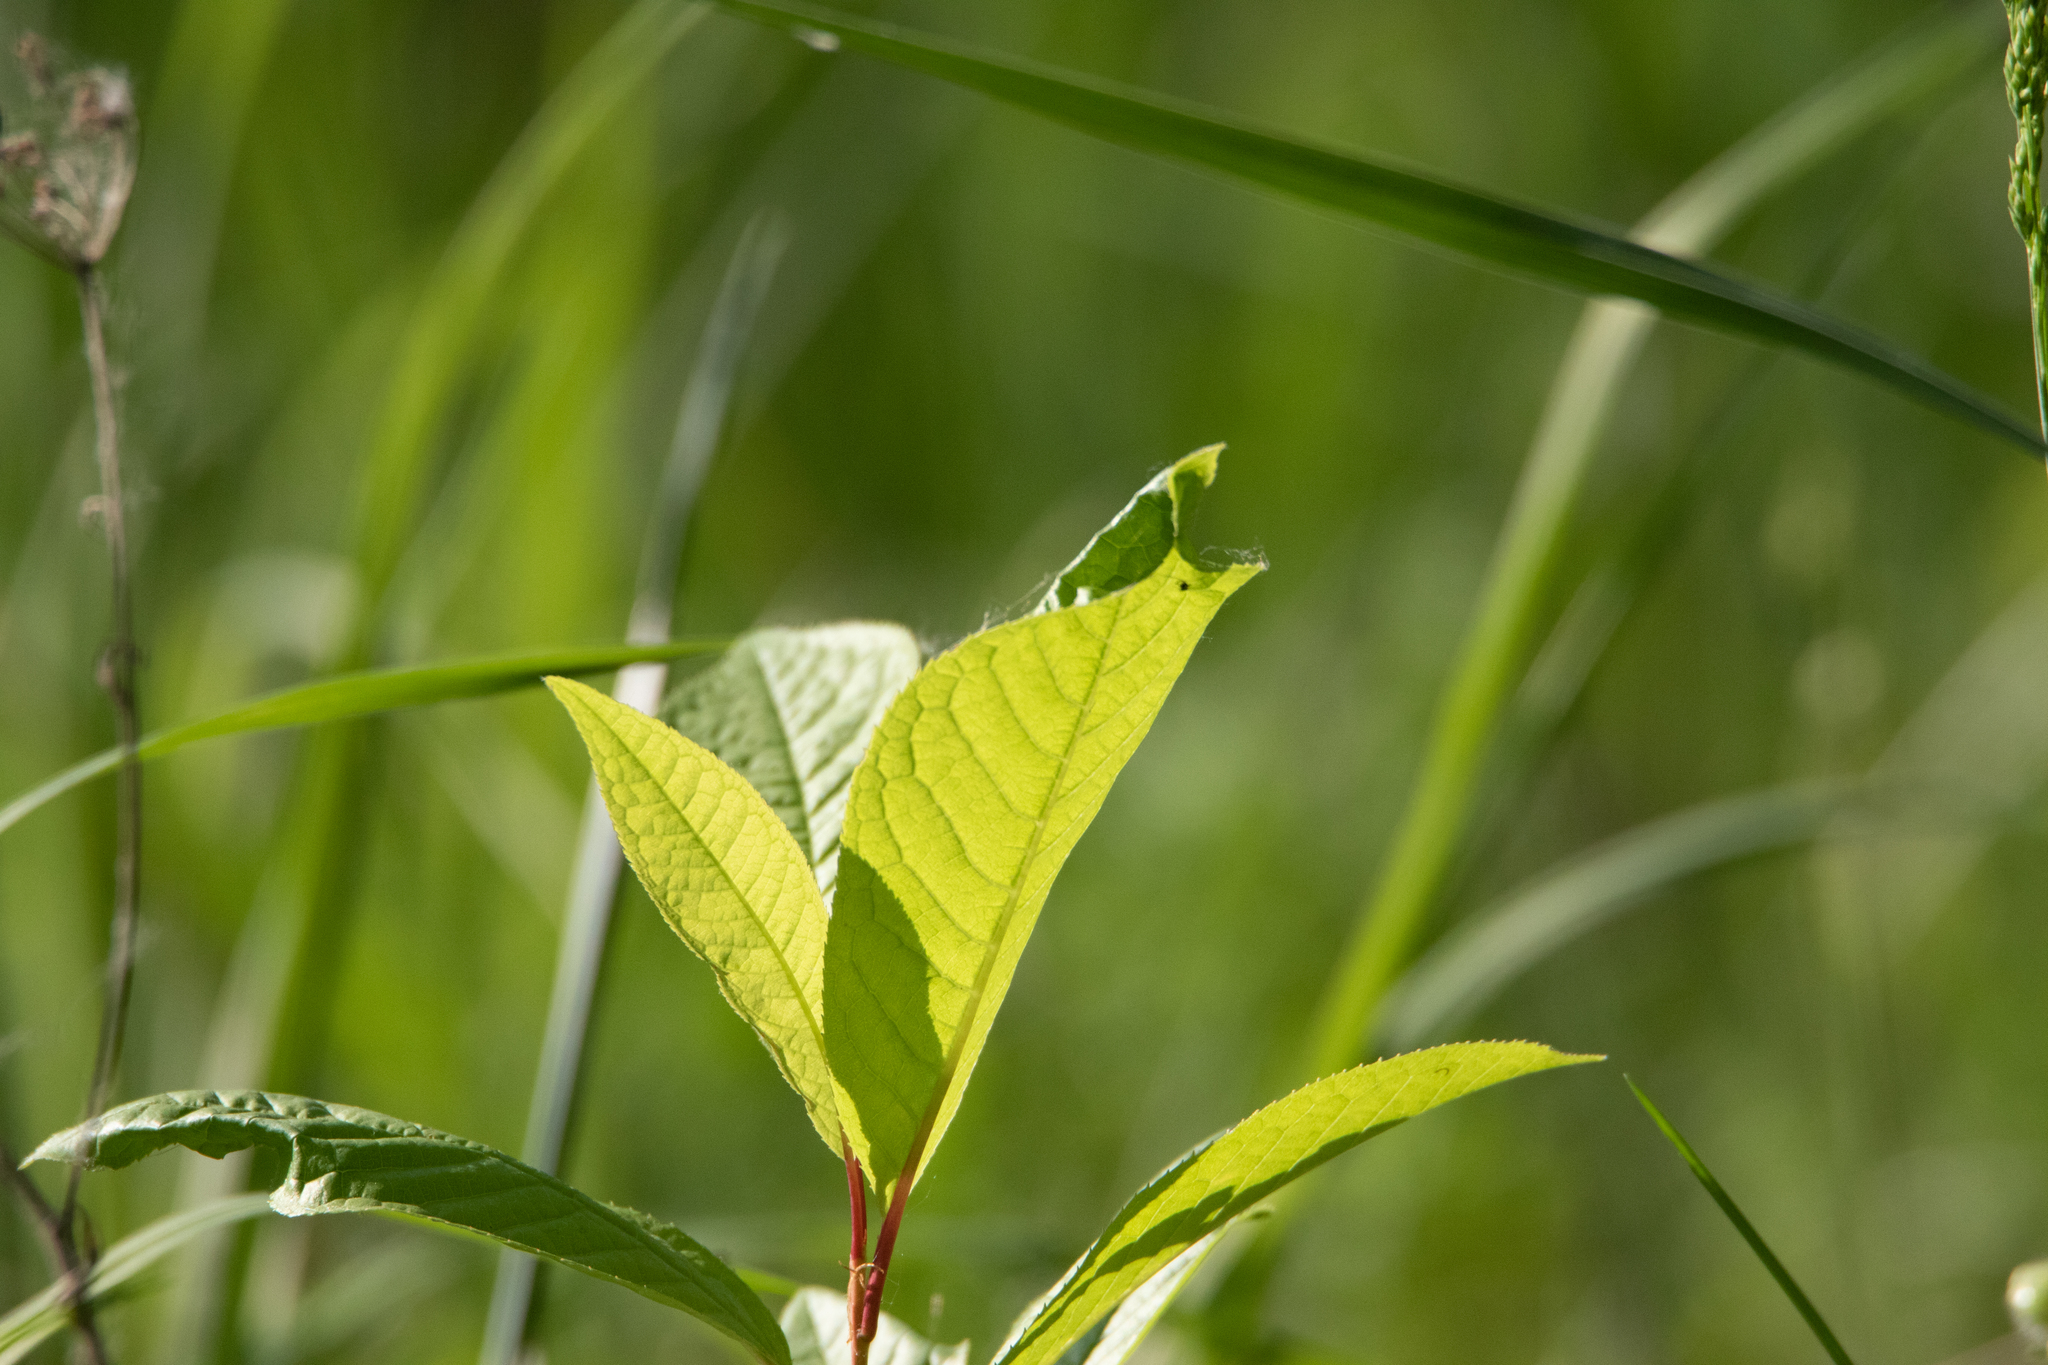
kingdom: Plantae
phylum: Tracheophyta
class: Magnoliopsida
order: Rosales
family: Rosaceae
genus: Prunus
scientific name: Prunus padus
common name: Bird cherry
